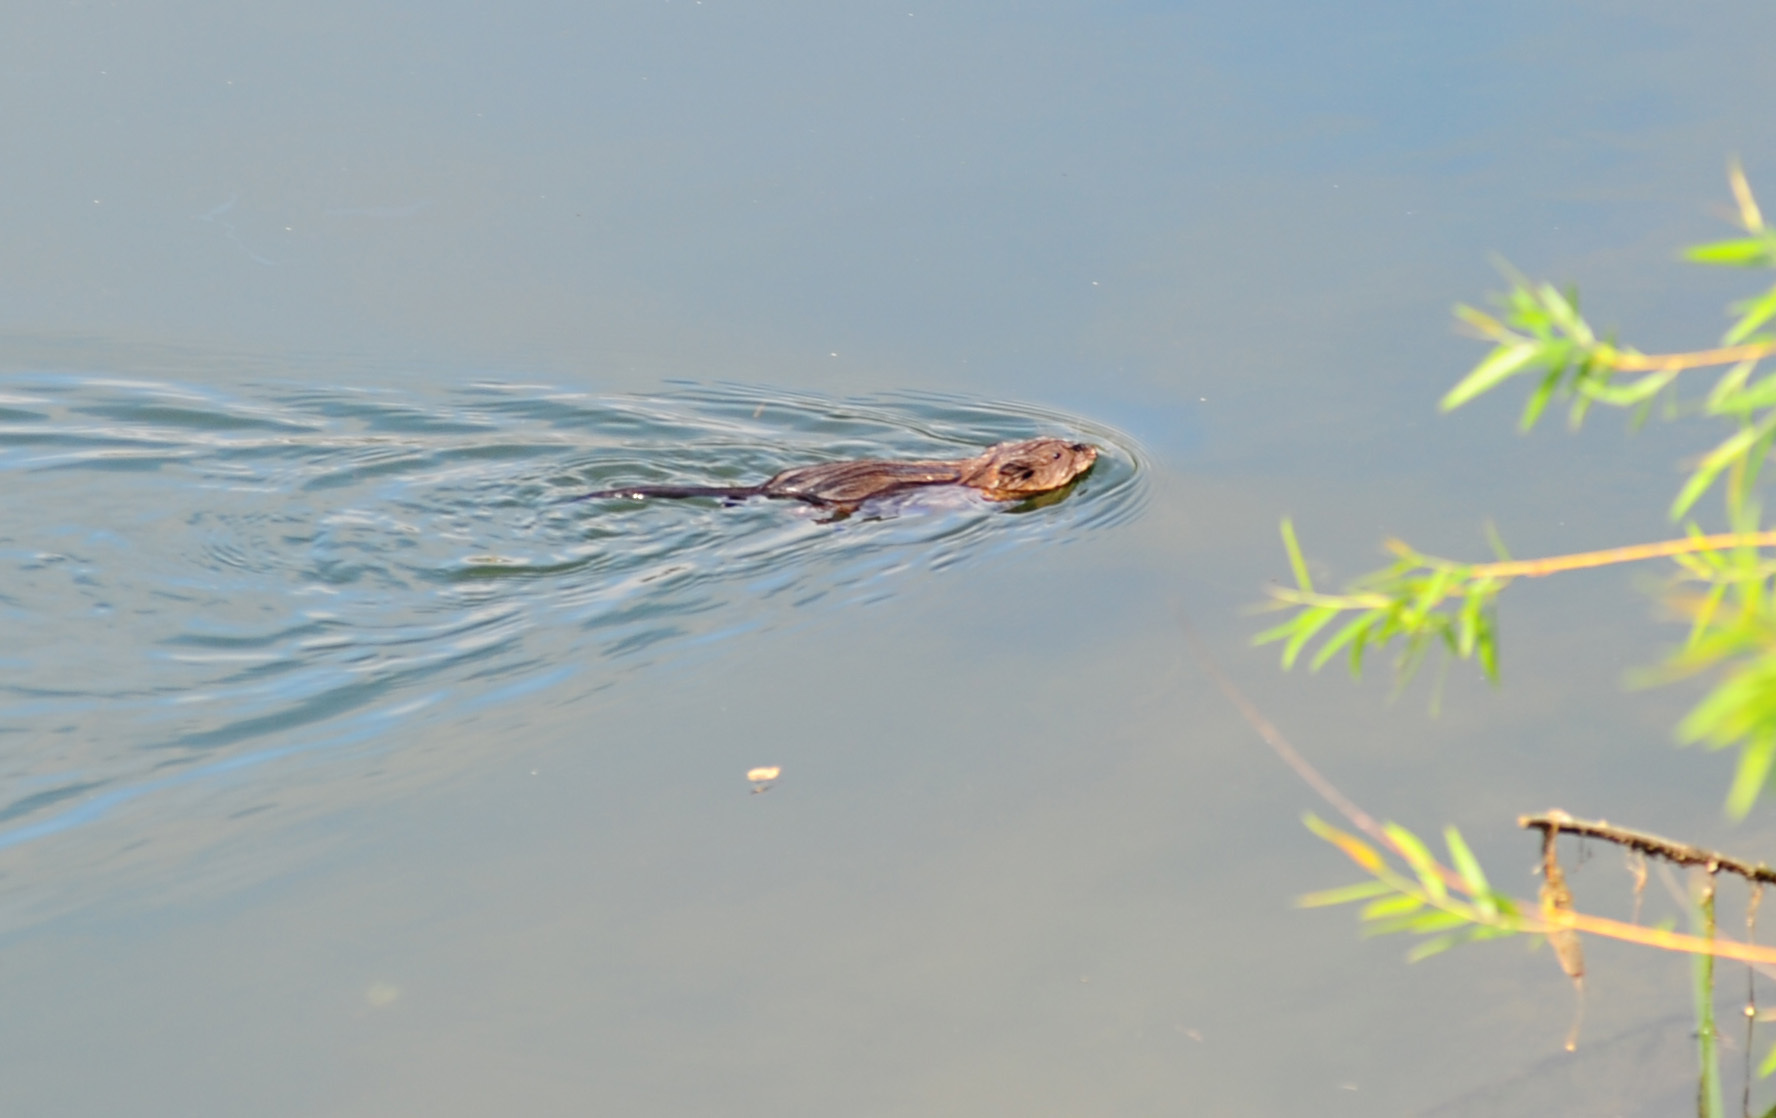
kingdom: Animalia
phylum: Chordata
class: Mammalia
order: Rodentia
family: Cricetidae
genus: Ondatra
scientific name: Ondatra zibethicus
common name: Muskrat
